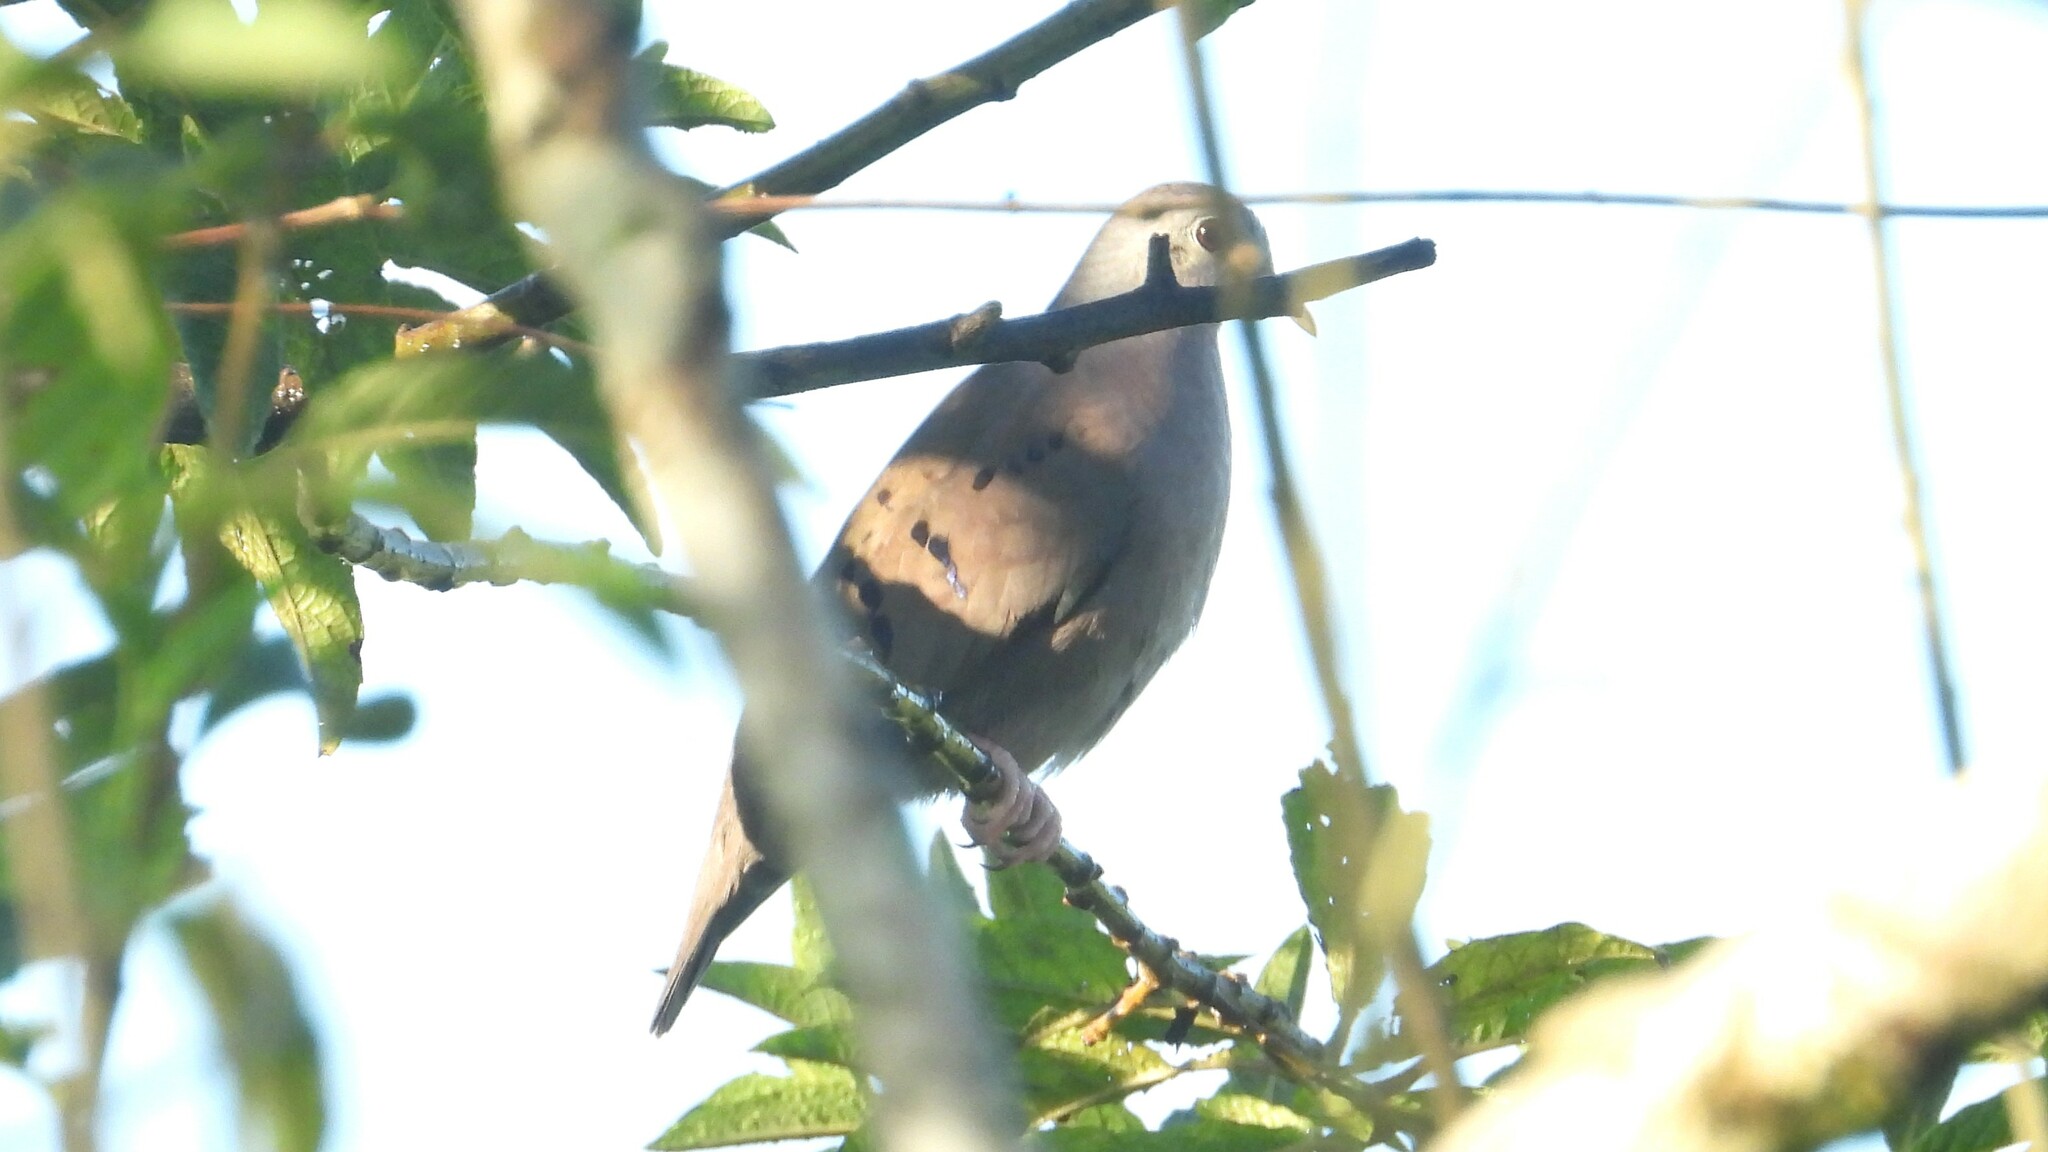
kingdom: Animalia
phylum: Chordata
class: Aves
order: Columbiformes
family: Columbidae
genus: Columbina
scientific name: Columbina minuta
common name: Plain-breasted ground dove
